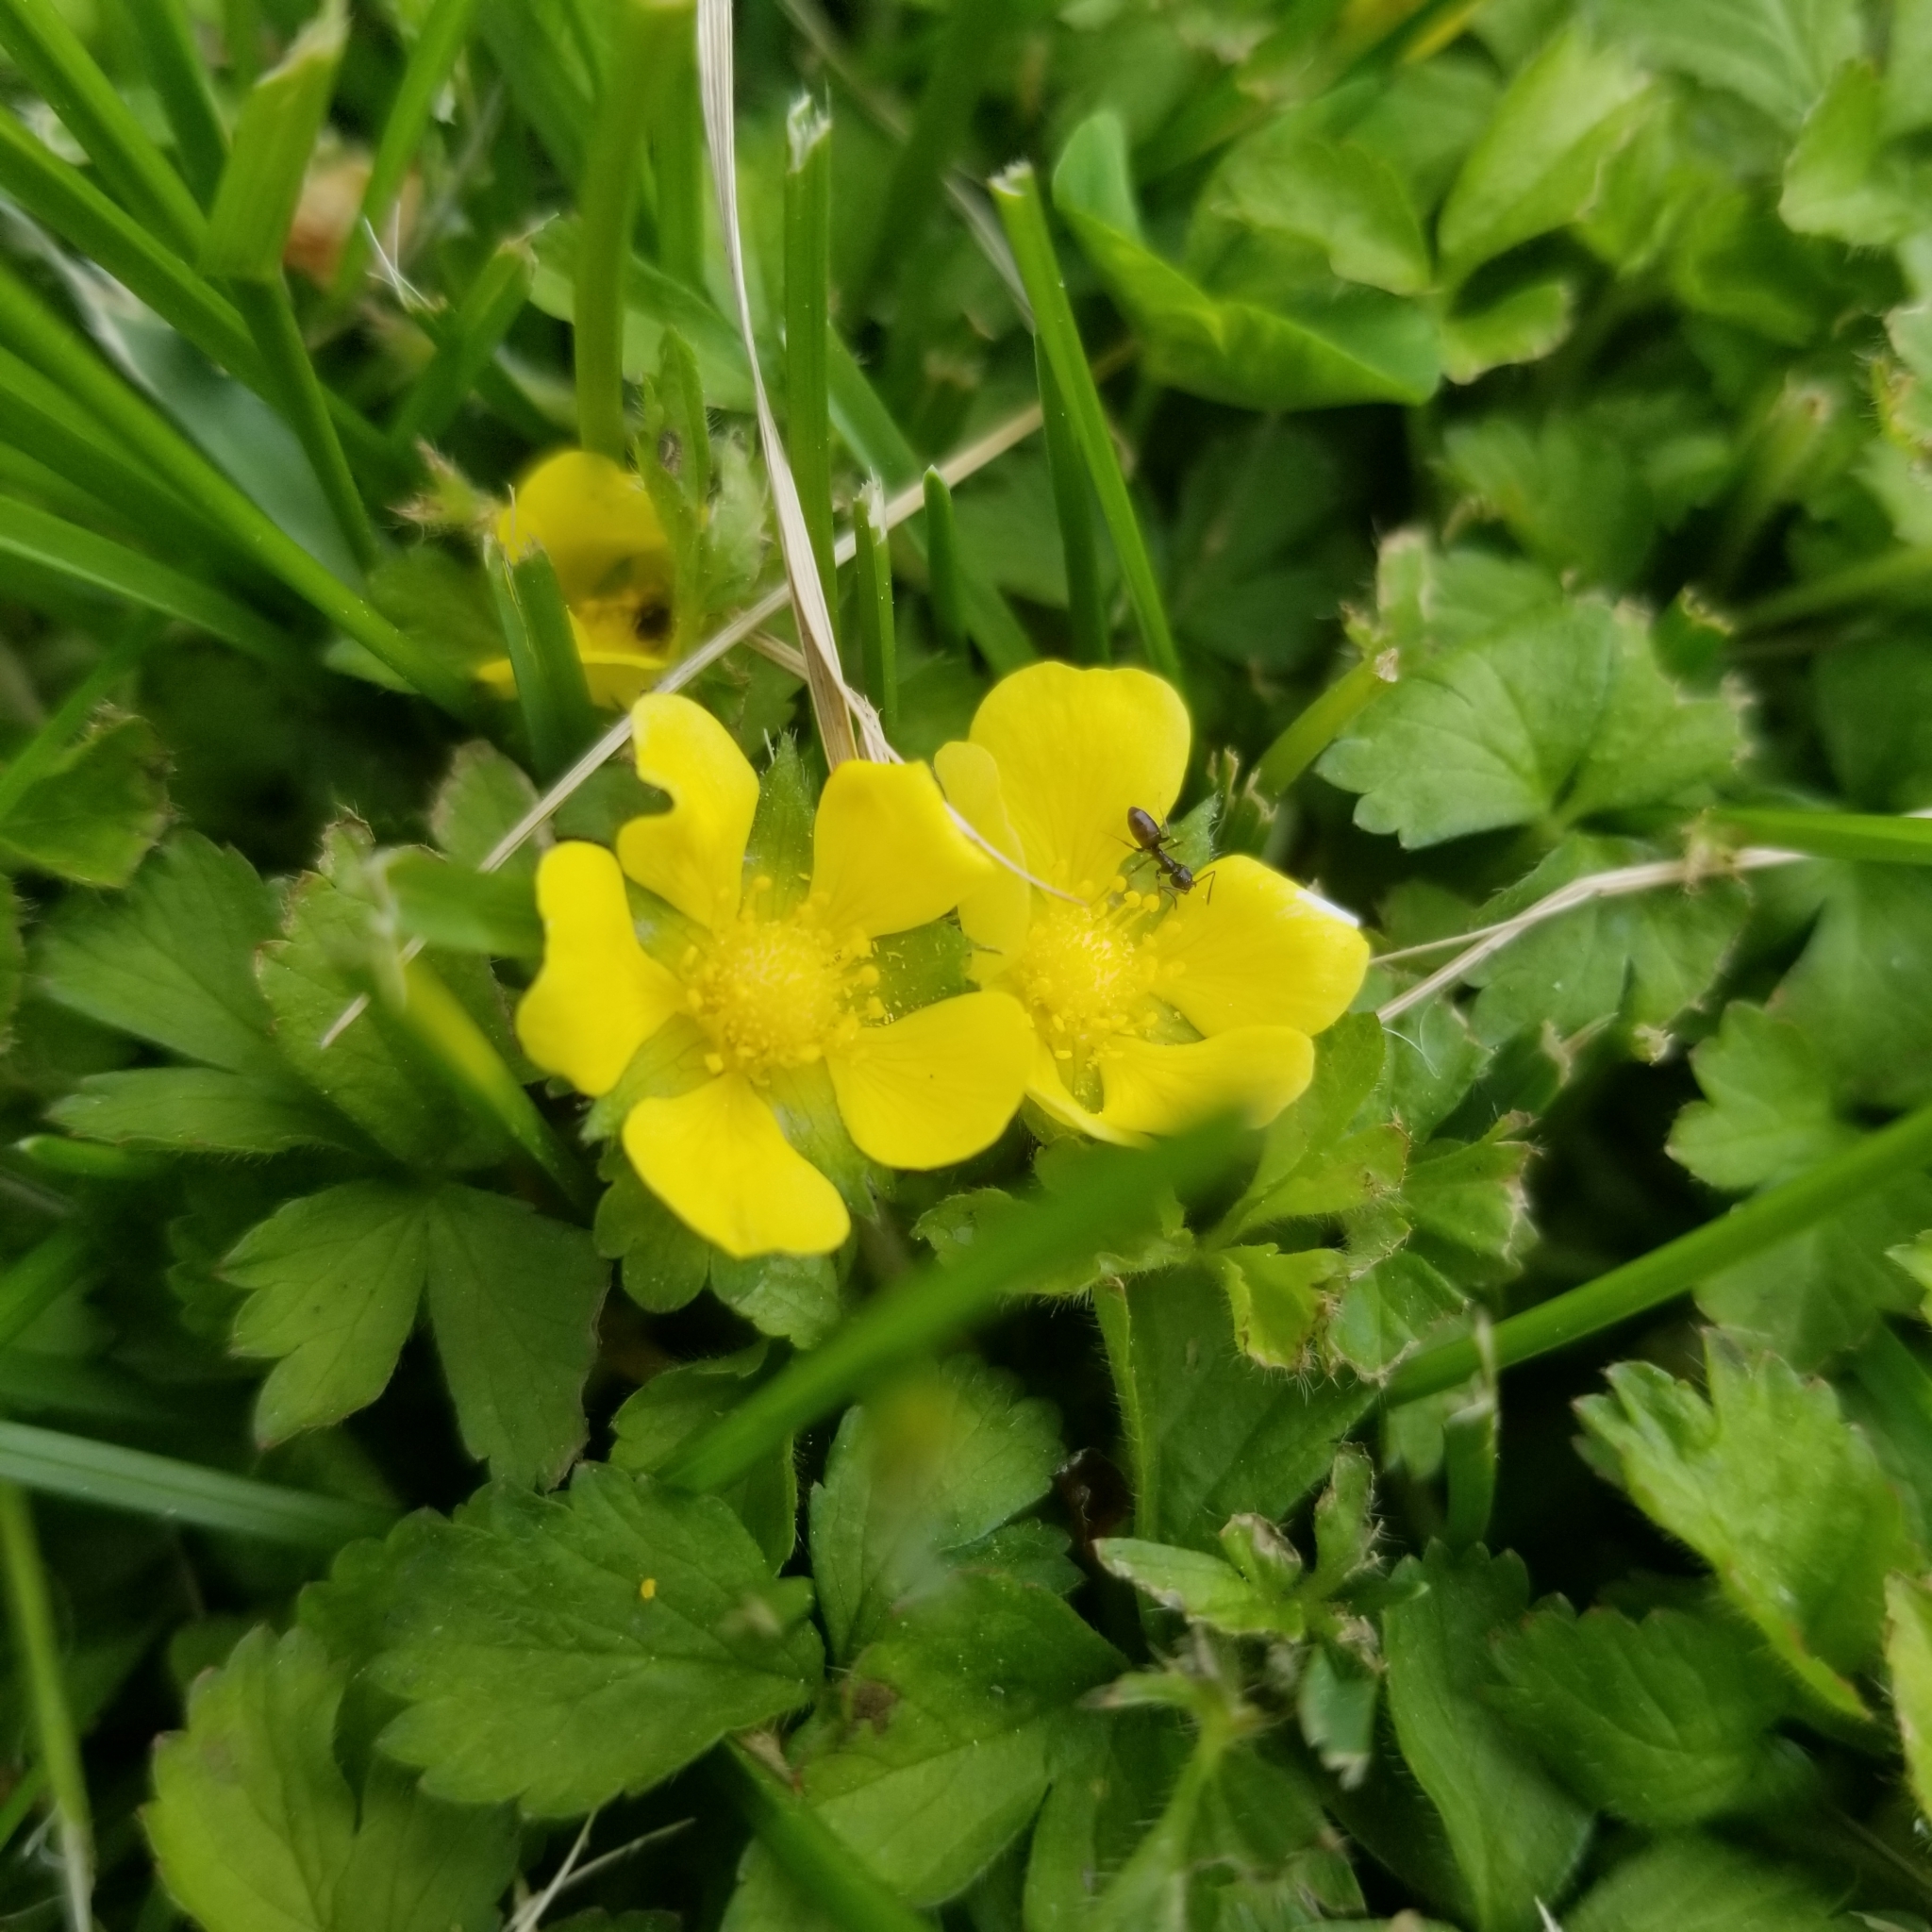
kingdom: Plantae
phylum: Tracheophyta
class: Magnoliopsida
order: Rosales
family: Rosaceae
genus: Potentilla
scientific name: Potentilla indica
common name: Yellow-flowered strawberry
